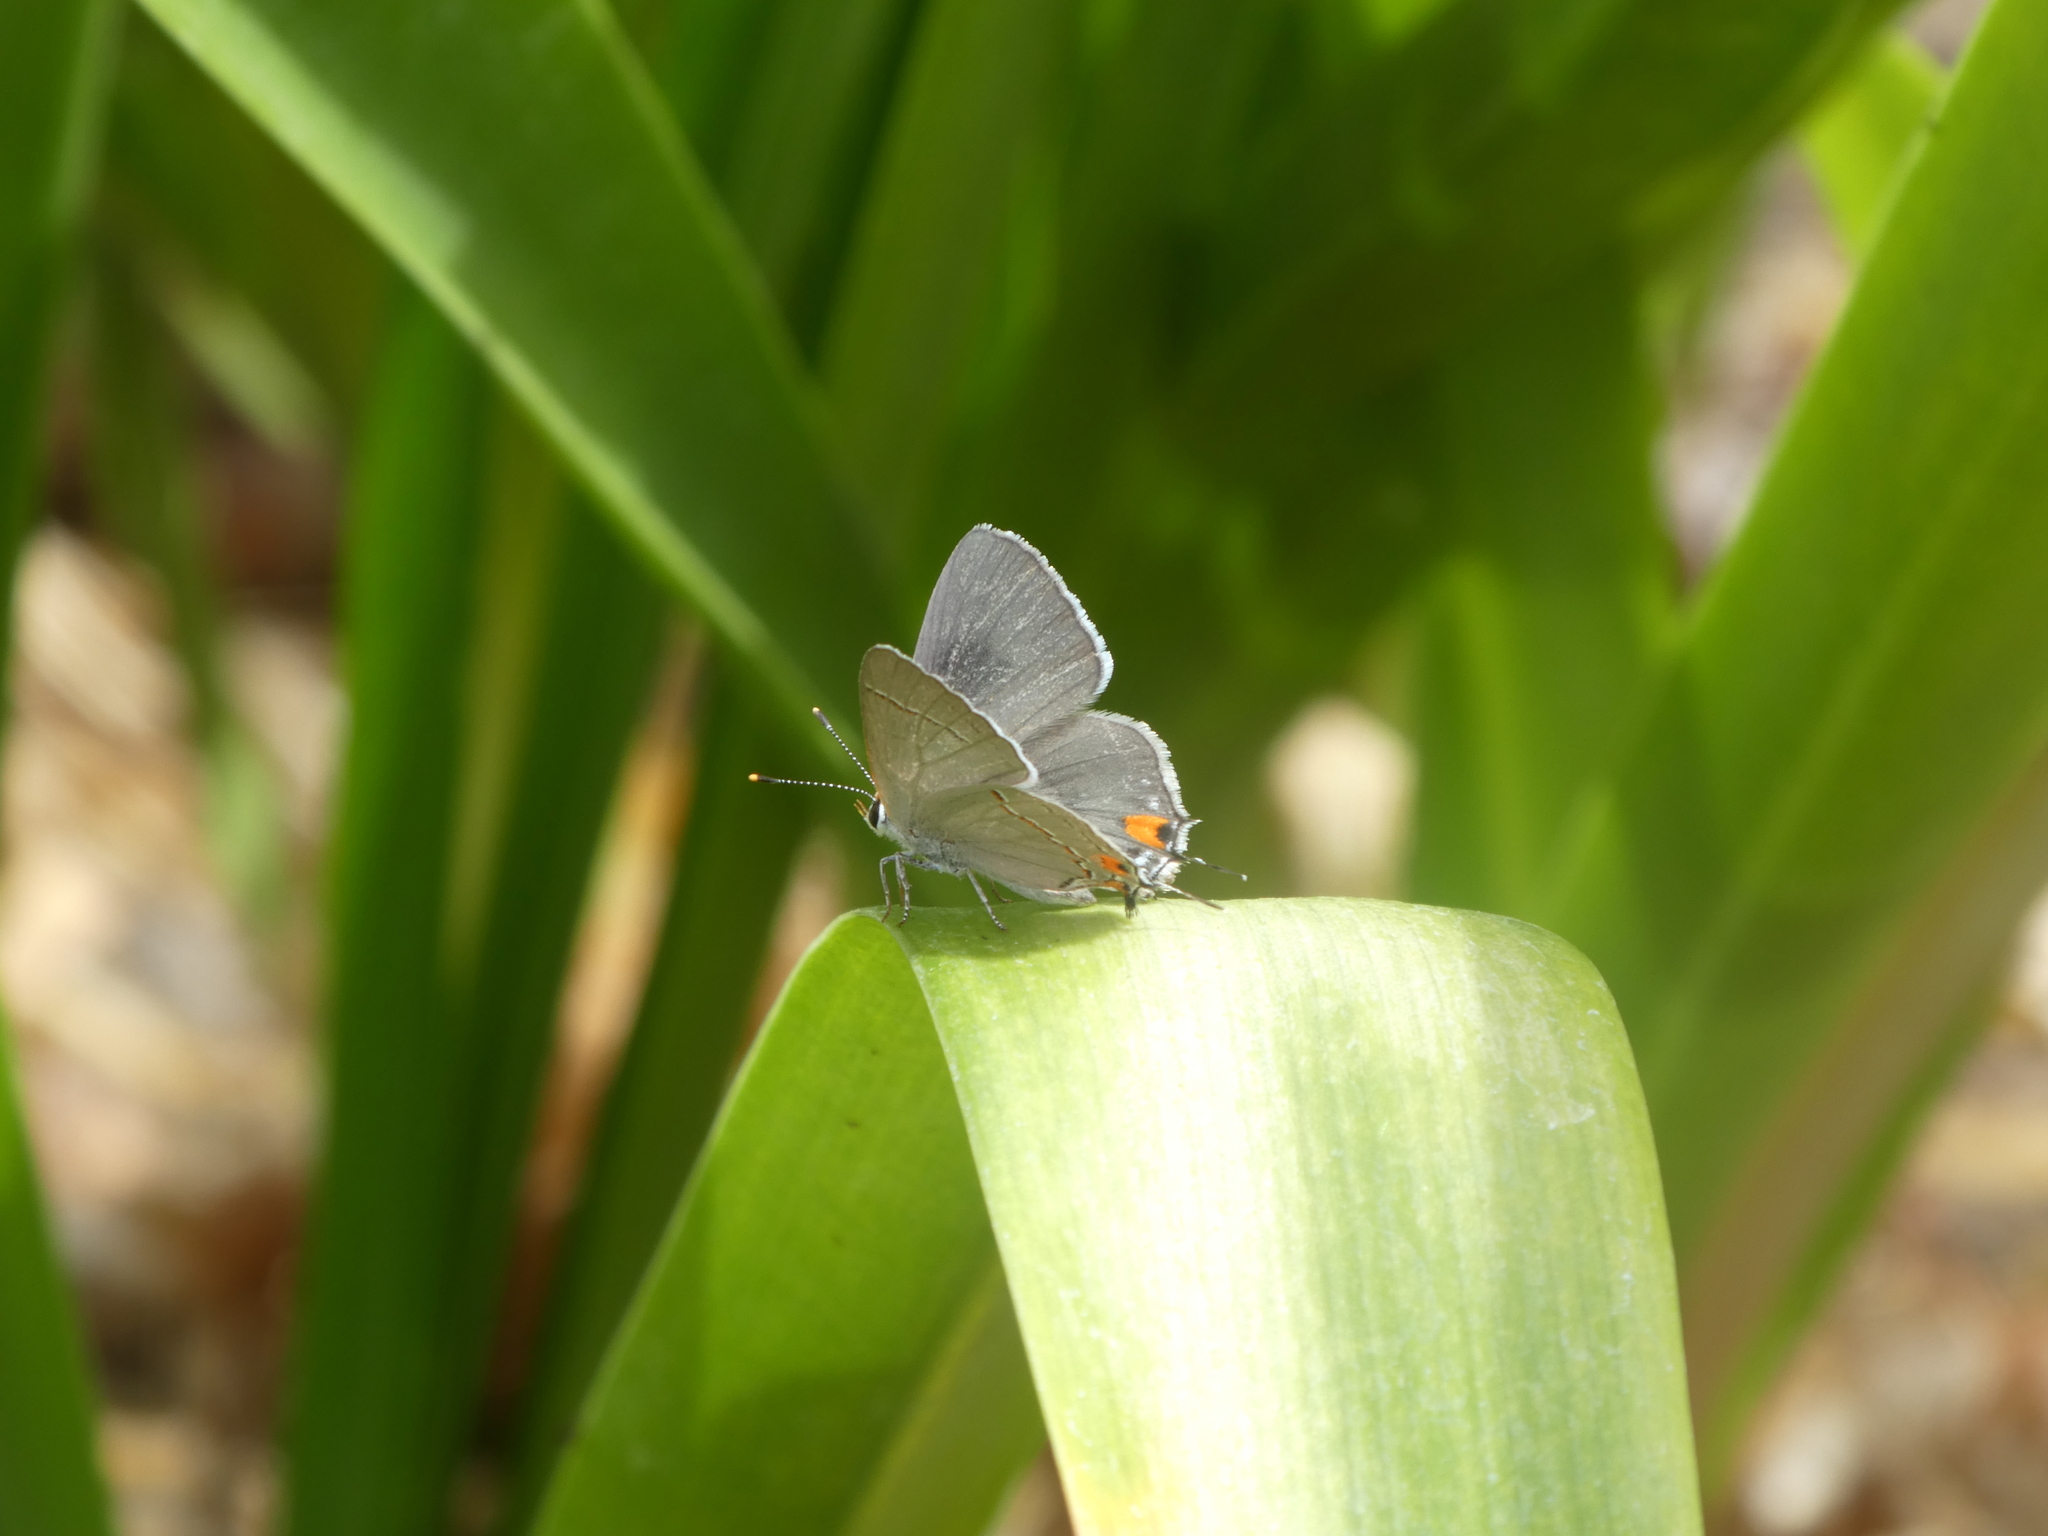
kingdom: Animalia
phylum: Arthropoda
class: Insecta
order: Lepidoptera
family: Lycaenidae
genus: Strymon
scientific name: Strymon melinus
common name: Gray hairstreak
